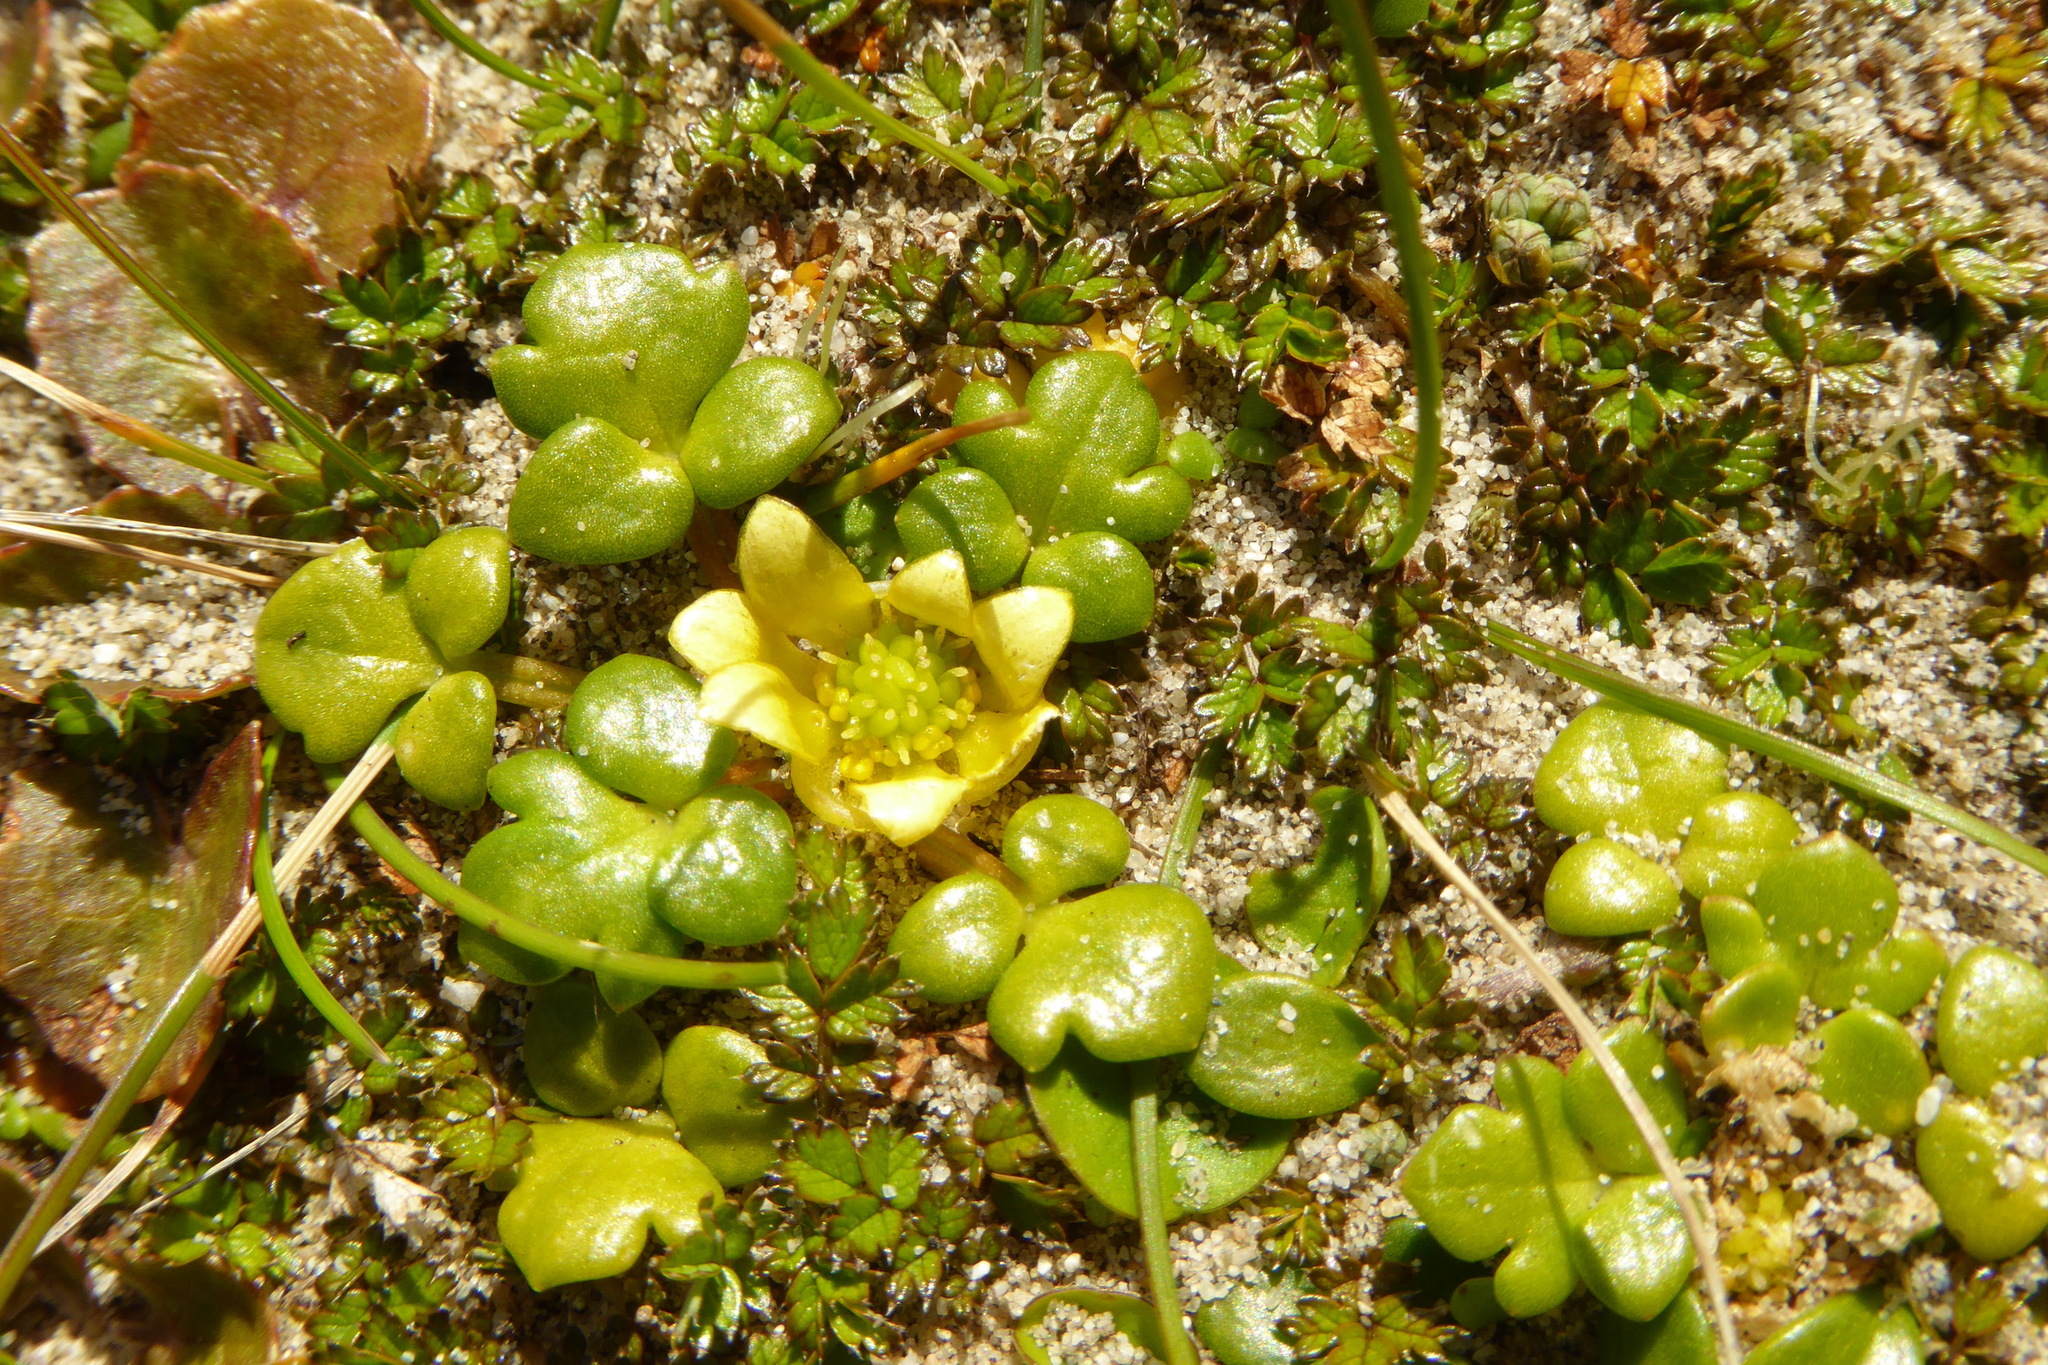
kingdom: Plantae
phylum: Tracheophyta
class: Magnoliopsida
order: Ranunculales
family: Ranunculaceae
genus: Ranunculus
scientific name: Ranunculus acaulis
